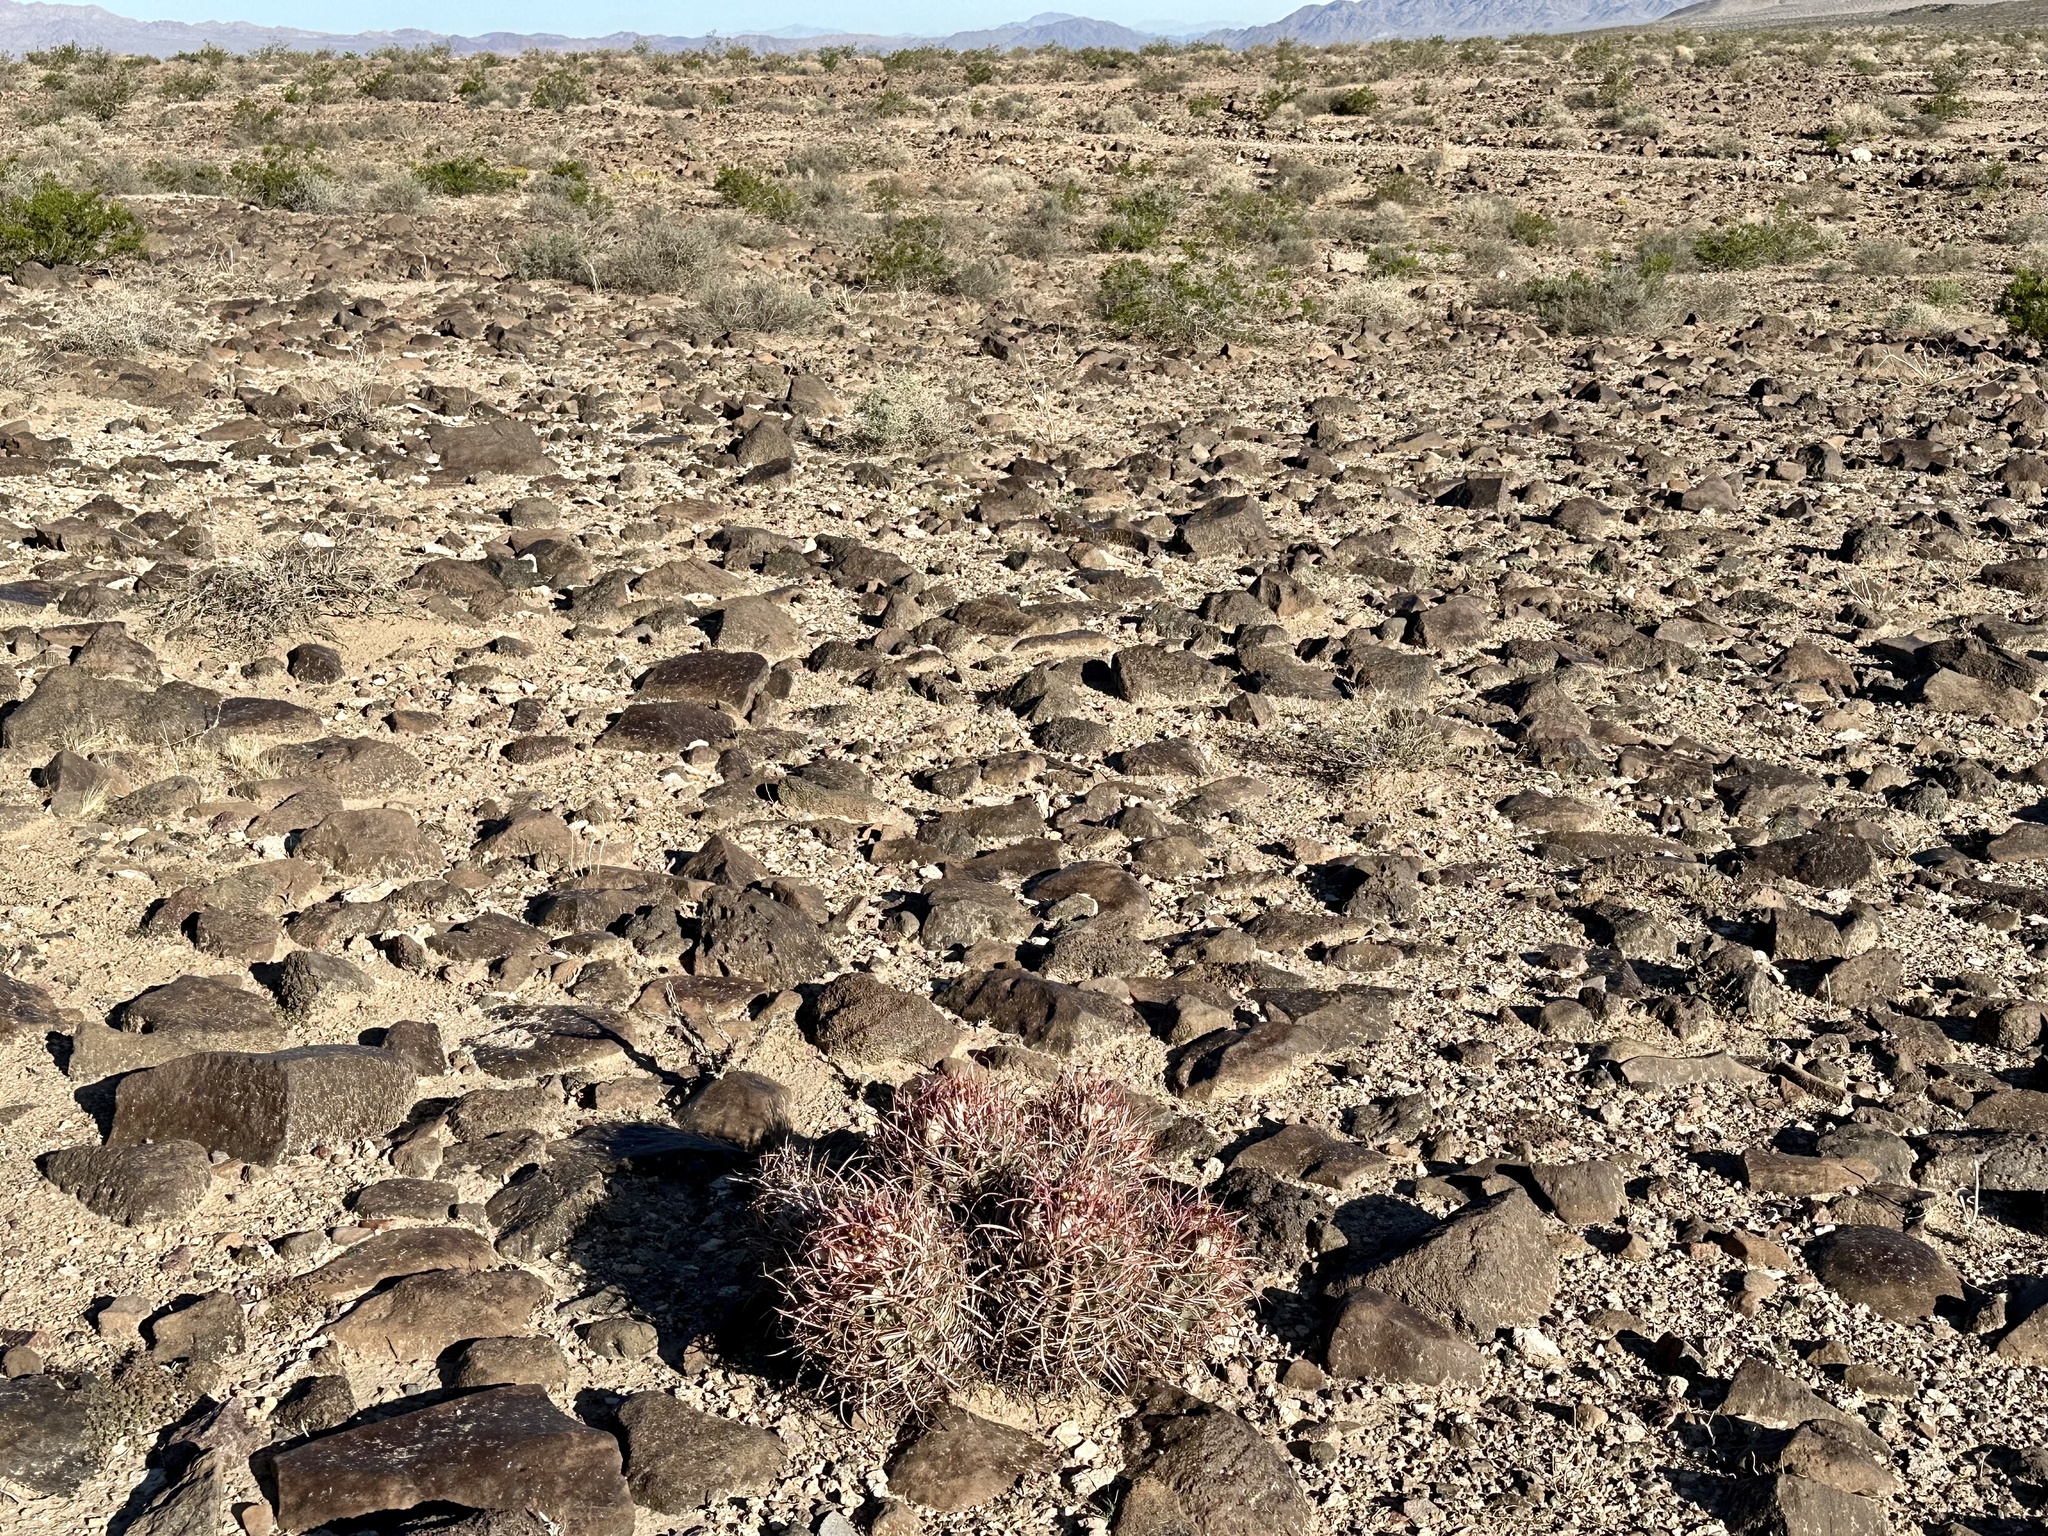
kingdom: Plantae
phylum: Tracheophyta
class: Magnoliopsida
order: Caryophyllales
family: Cactaceae
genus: Echinocactus
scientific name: Echinocactus polycephalus
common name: Cottontop cactus
